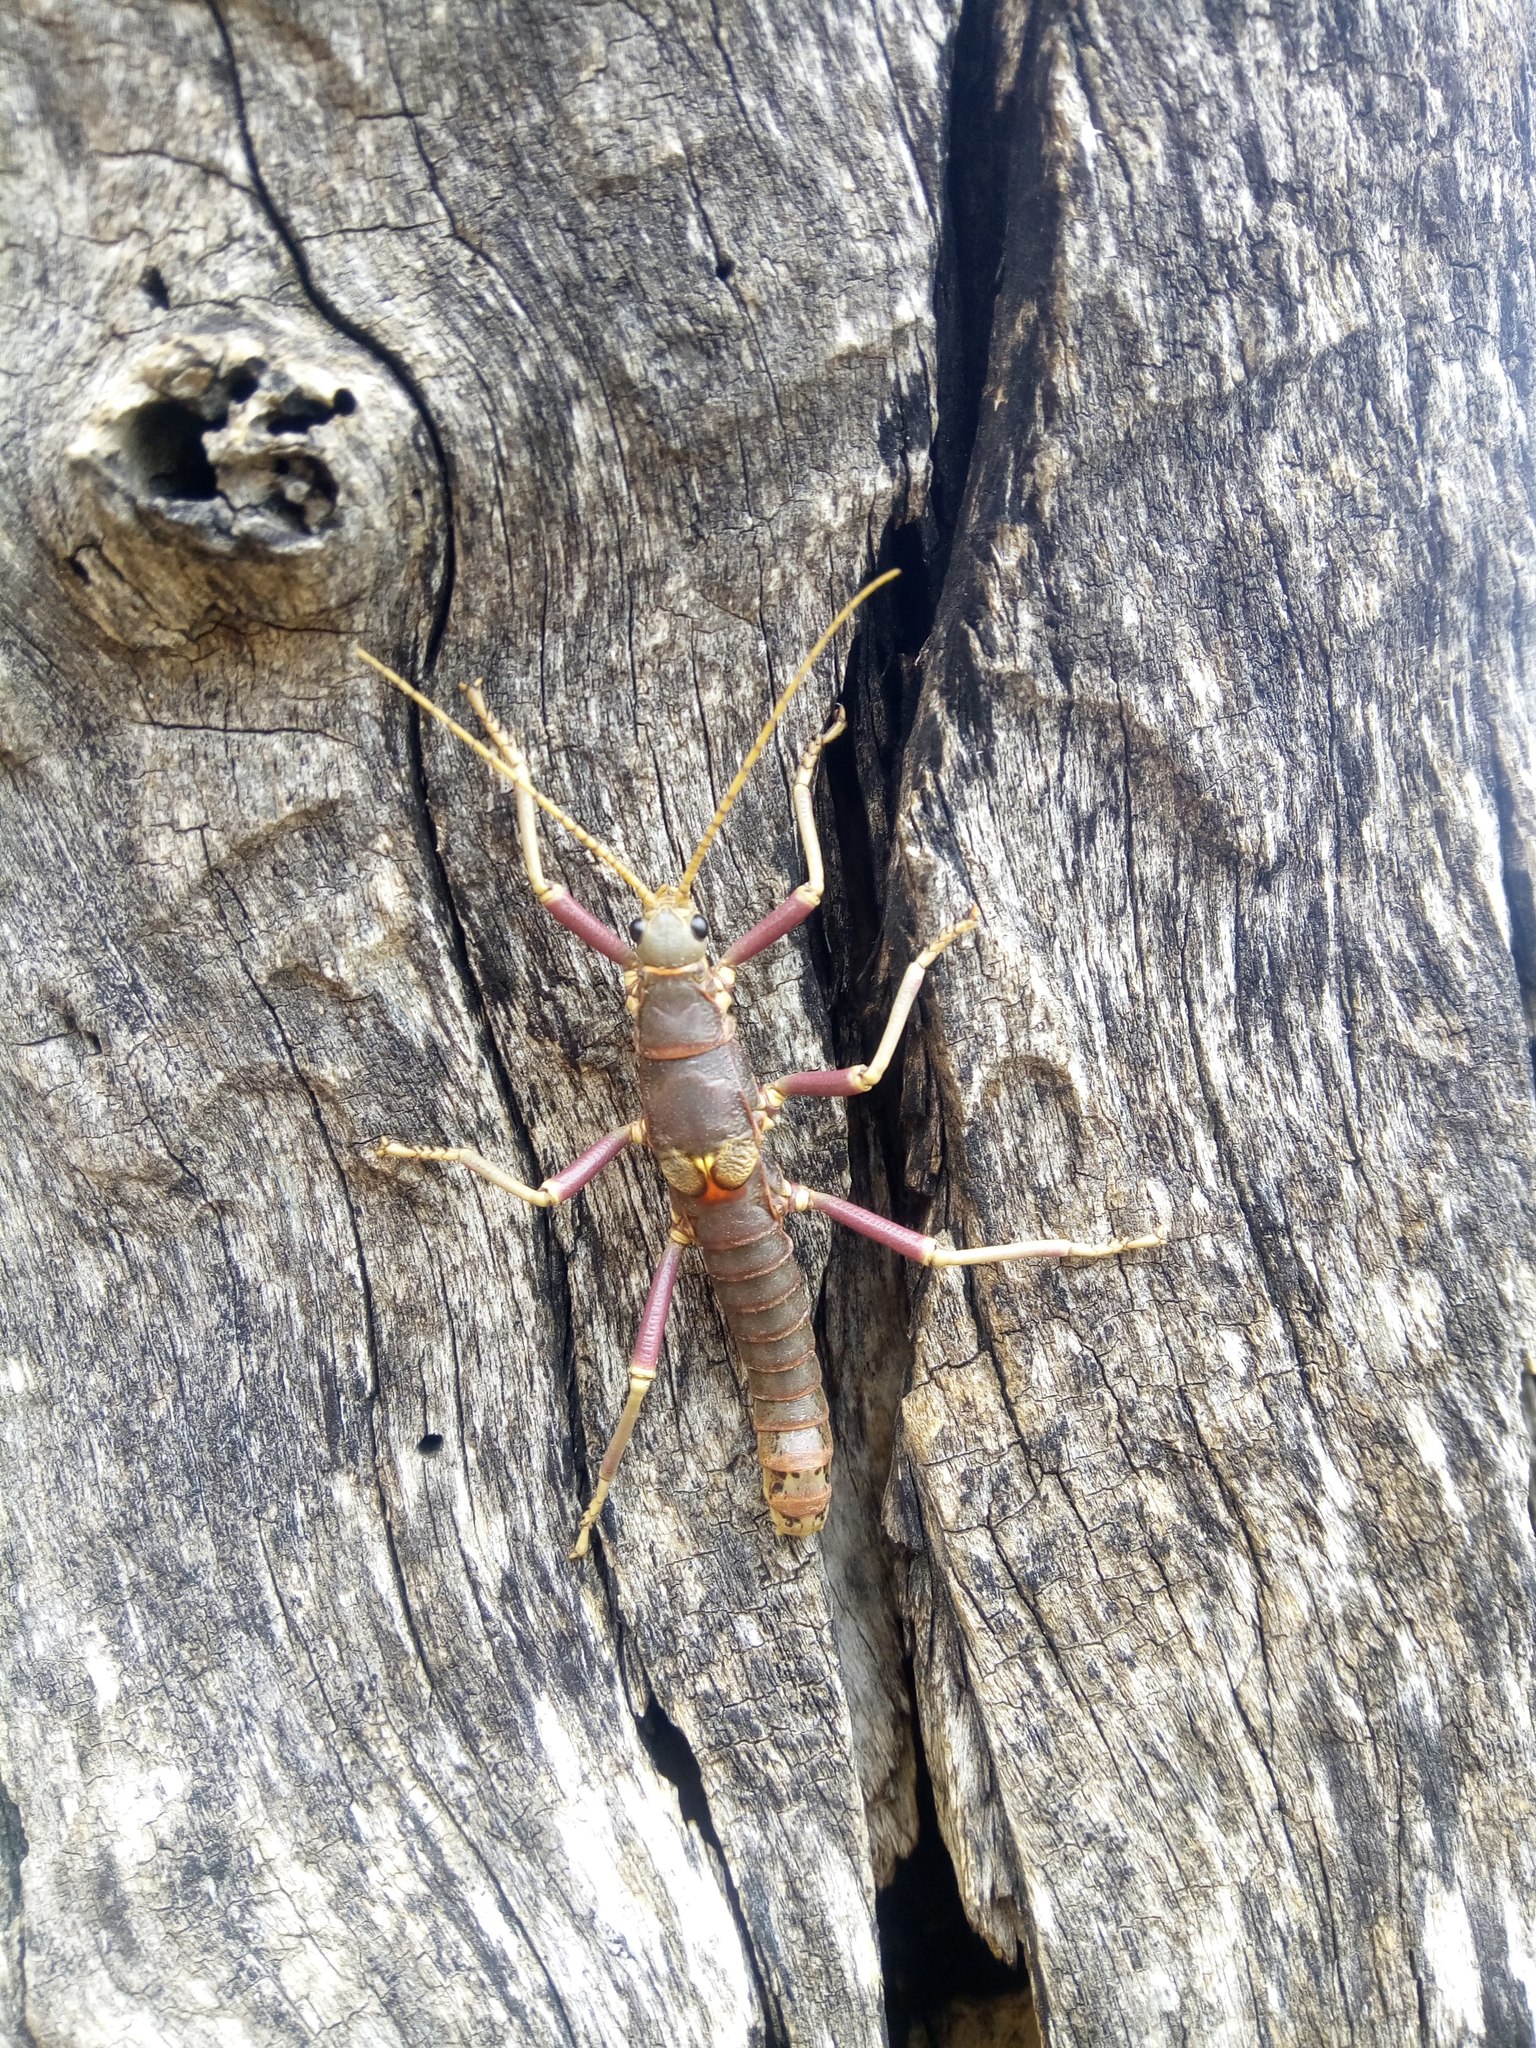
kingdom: Animalia
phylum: Arthropoda
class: Insecta
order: Phasmida
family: Agathemeridae
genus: Agathemera
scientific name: Agathemera luteola
